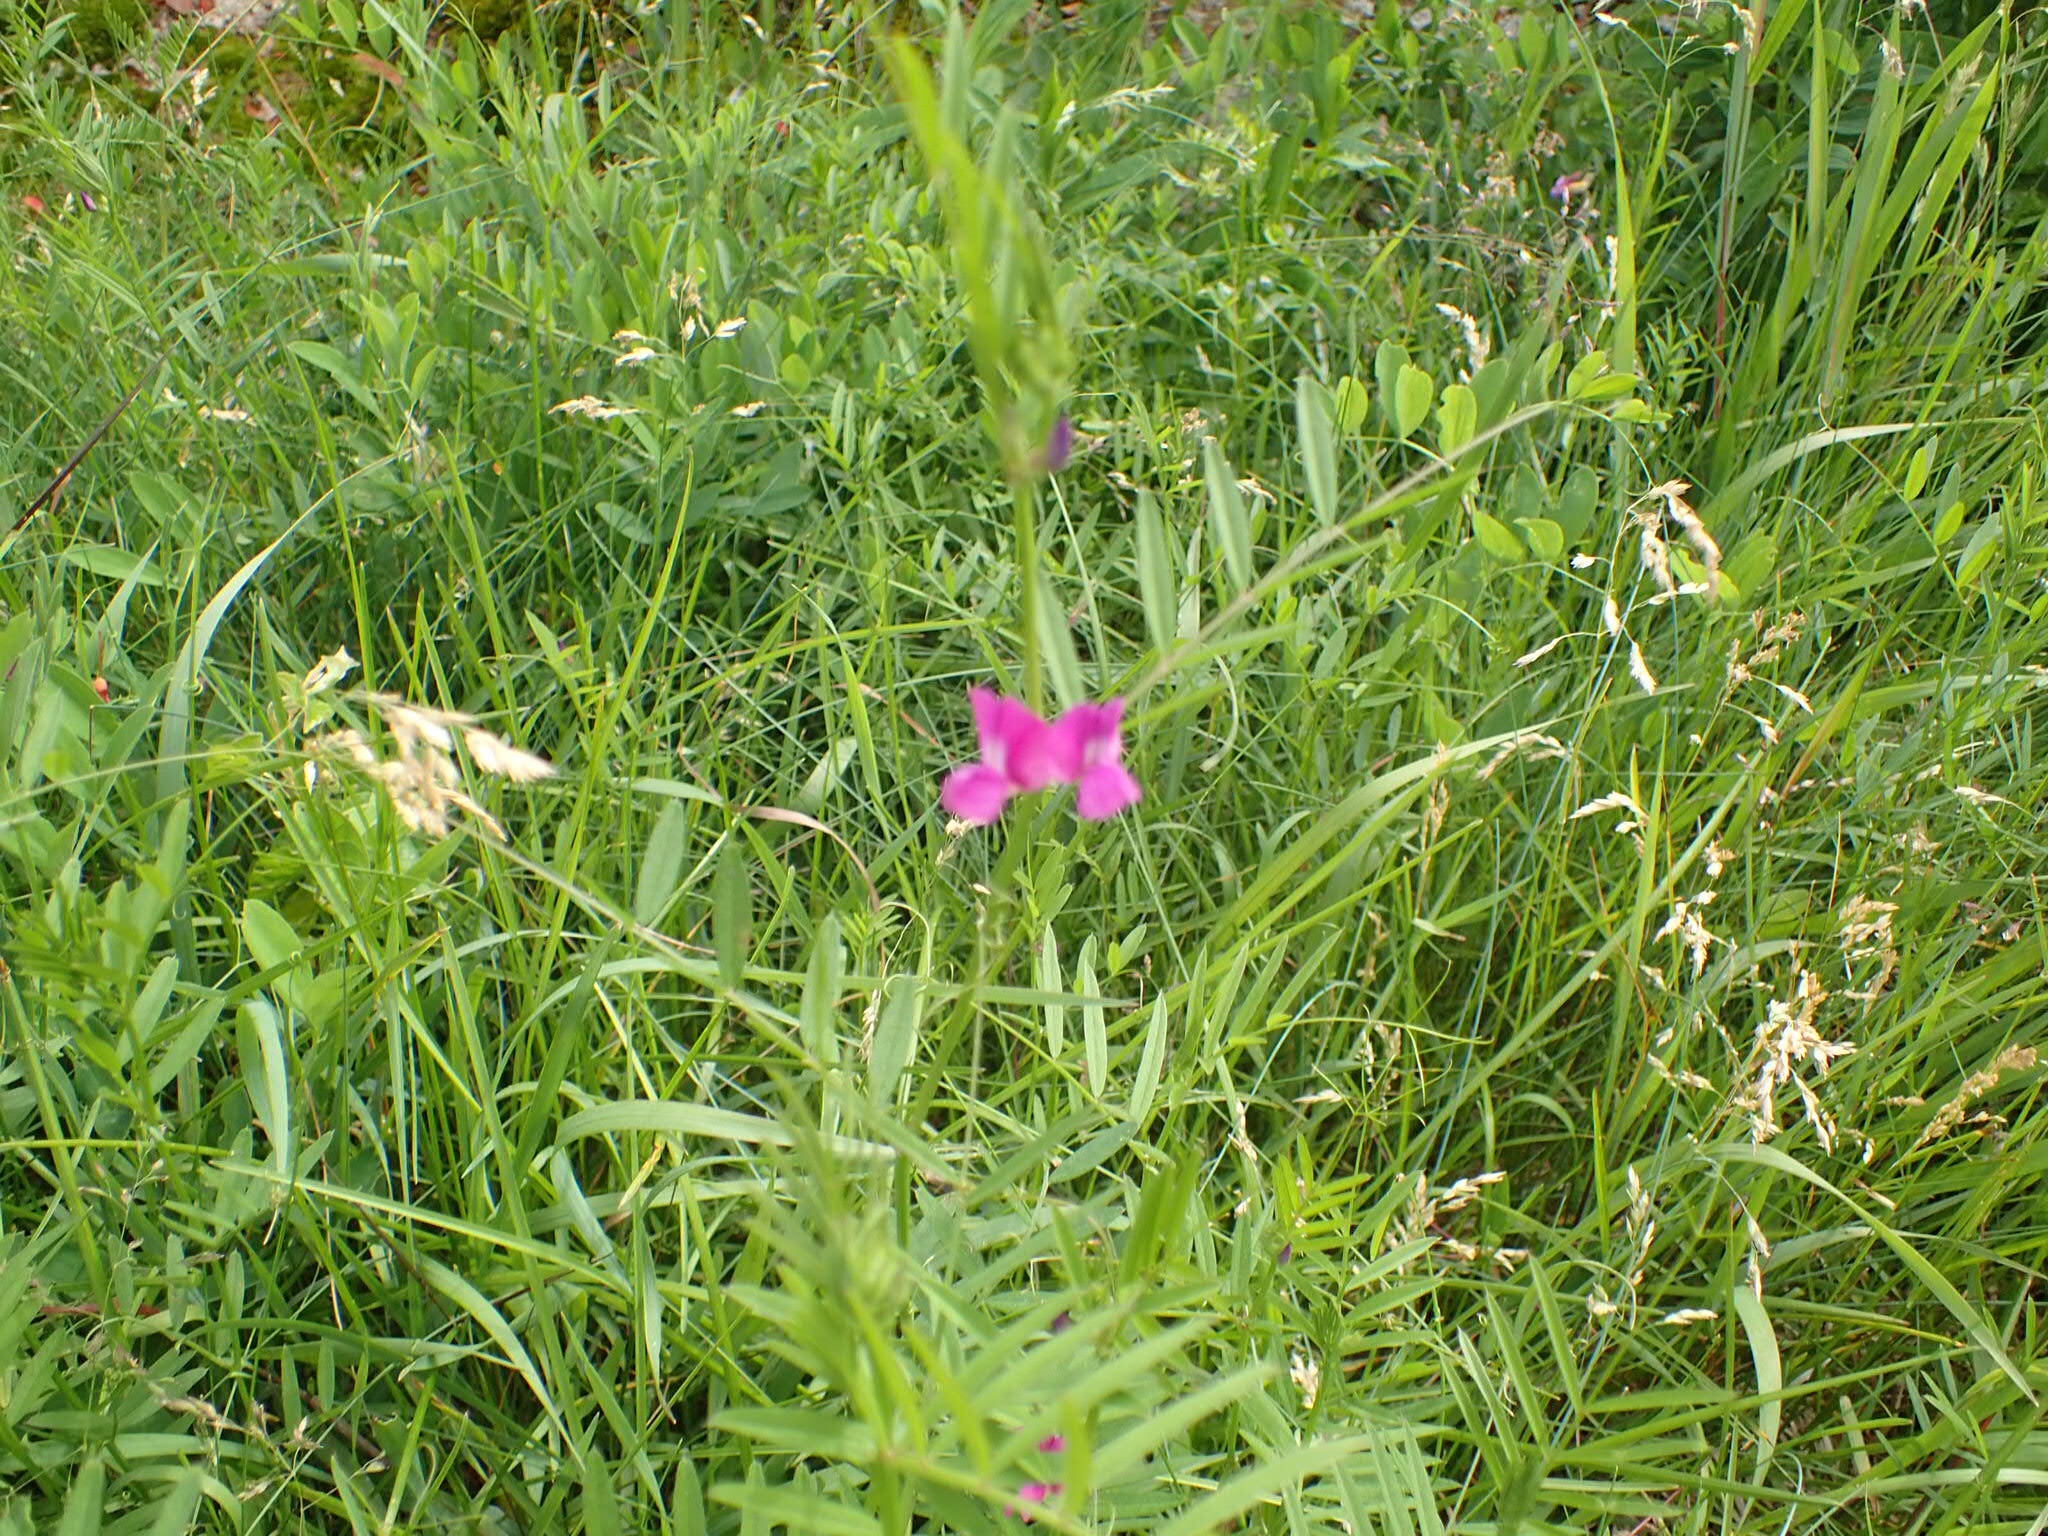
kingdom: Plantae
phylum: Tracheophyta
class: Magnoliopsida
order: Fabales
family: Fabaceae
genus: Vicia
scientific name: Vicia sativa
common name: Garden vetch
